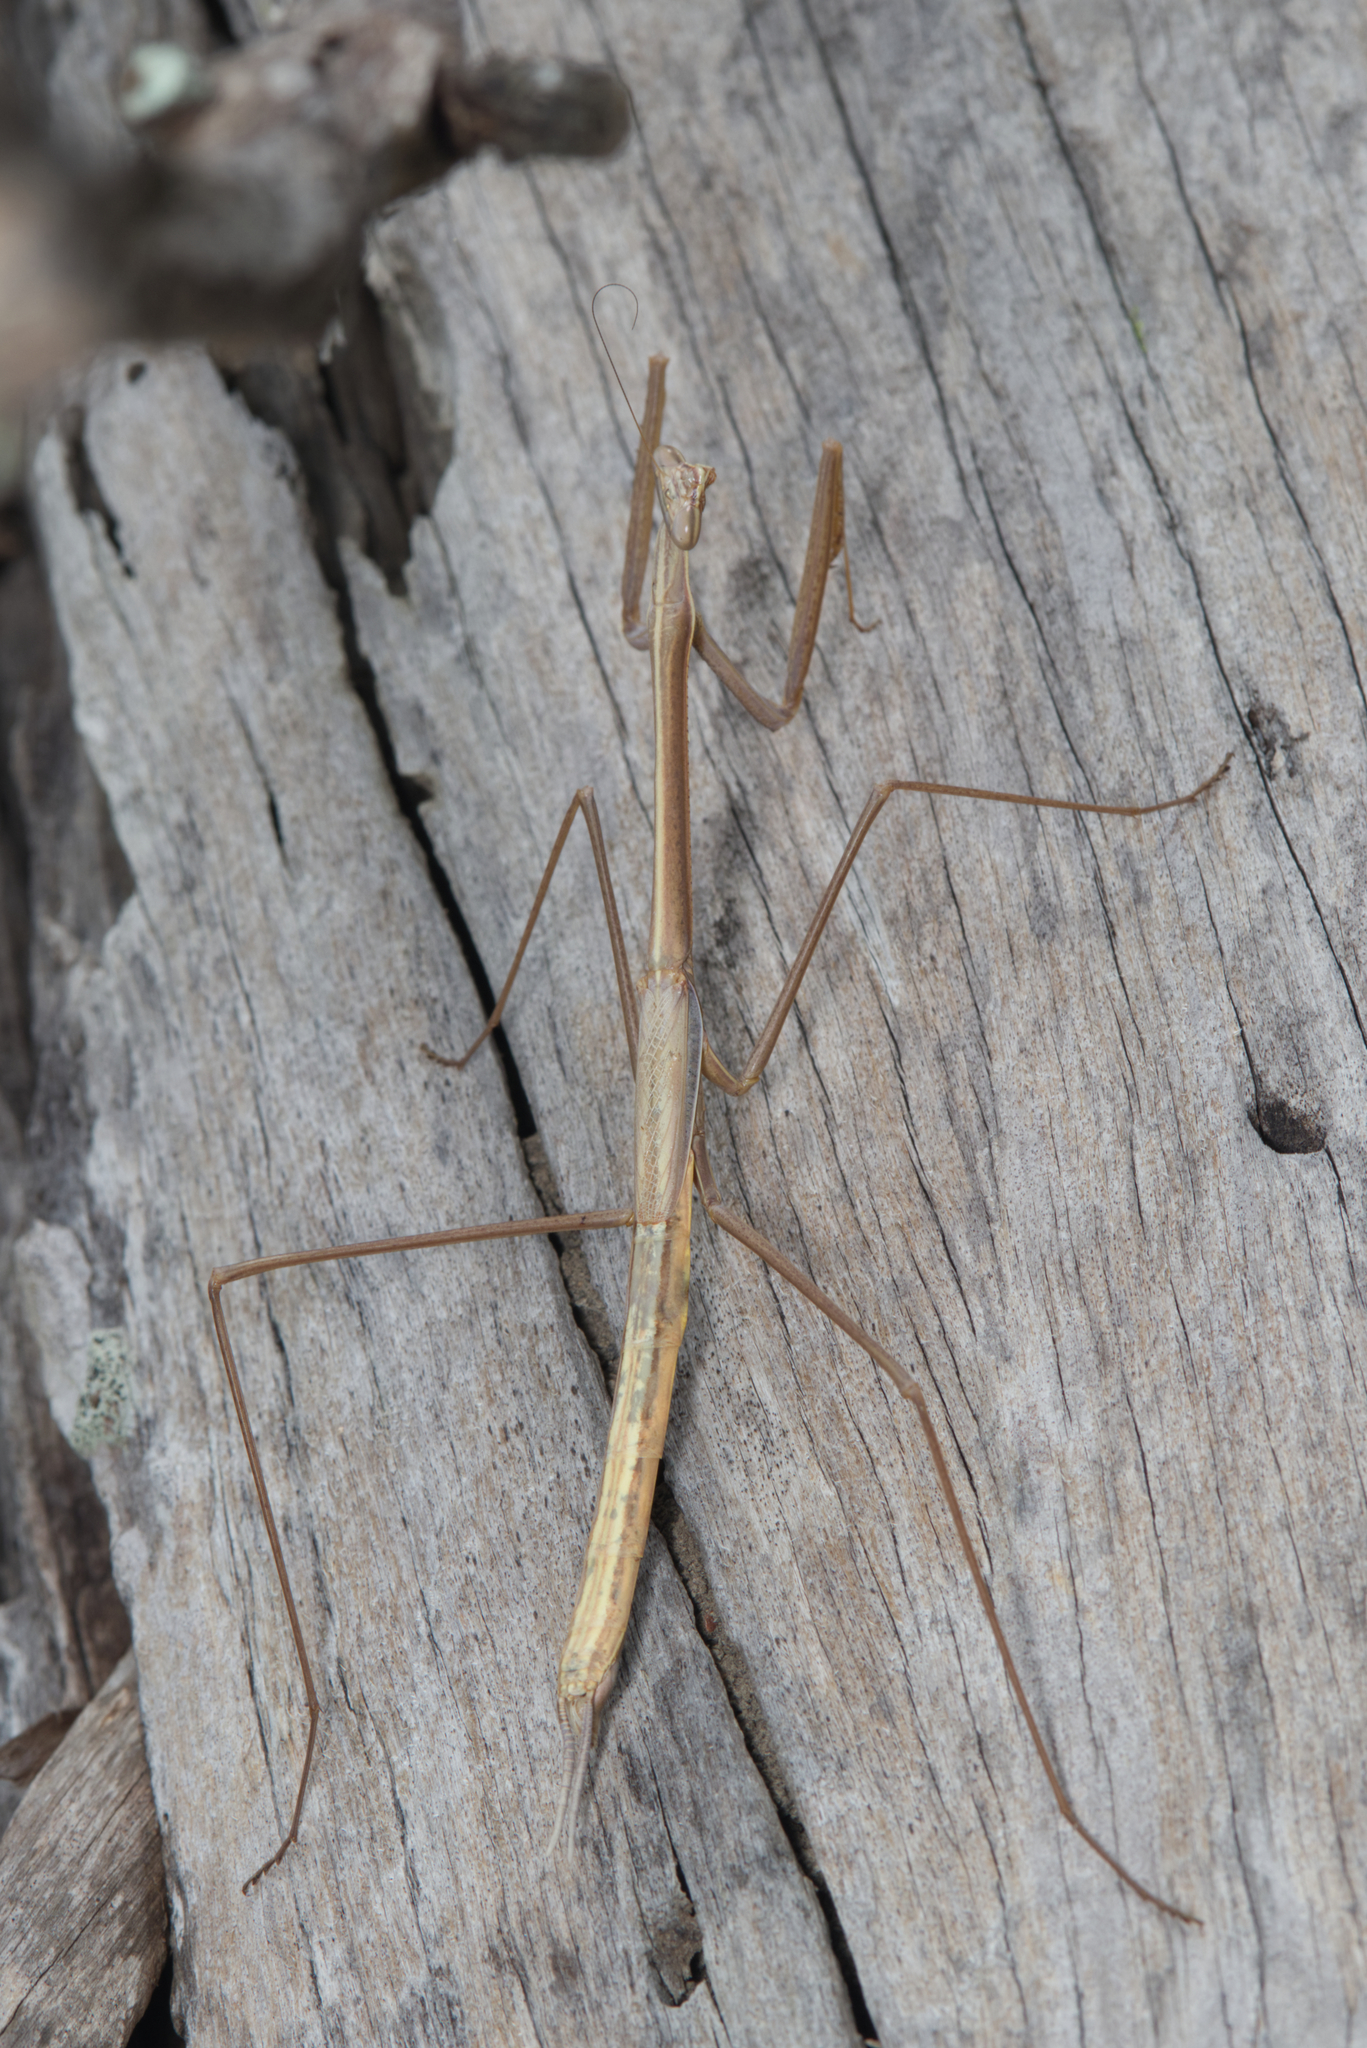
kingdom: Animalia
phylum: Arthropoda
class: Insecta
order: Mantodea
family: Mantidae
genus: Archimantis
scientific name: Archimantis brunneriana
